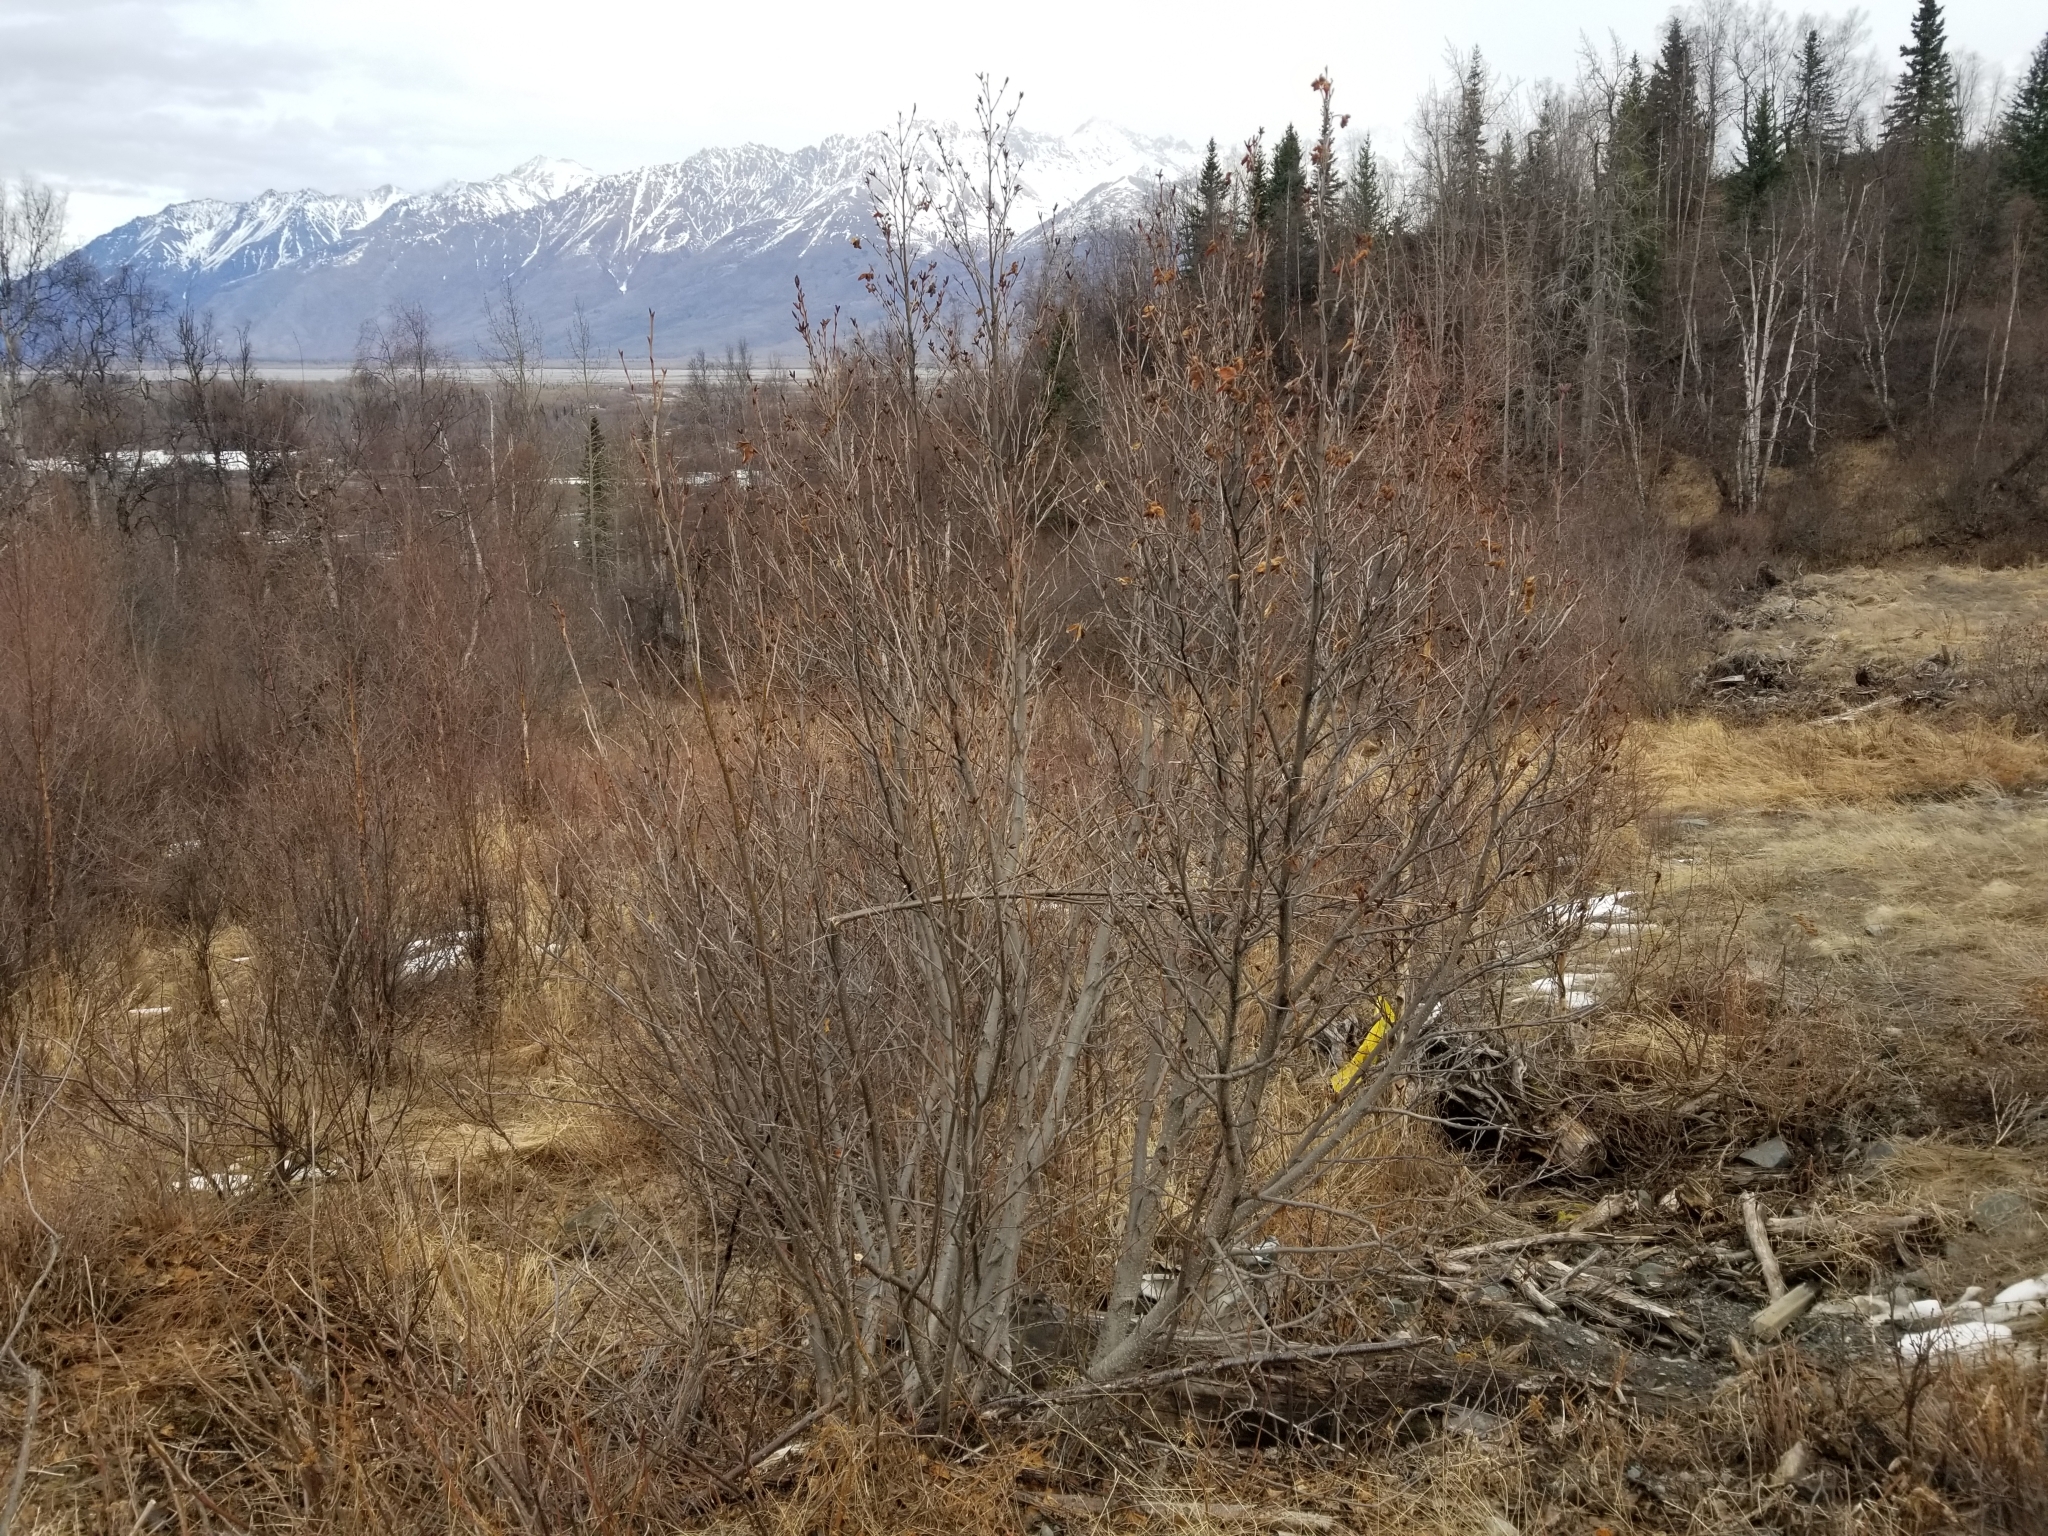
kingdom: Plantae
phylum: Tracheophyta
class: Magnoliopsida
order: Fagales
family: Betulaceae
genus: Alnus
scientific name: Alnus alnobetula
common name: Green alder
